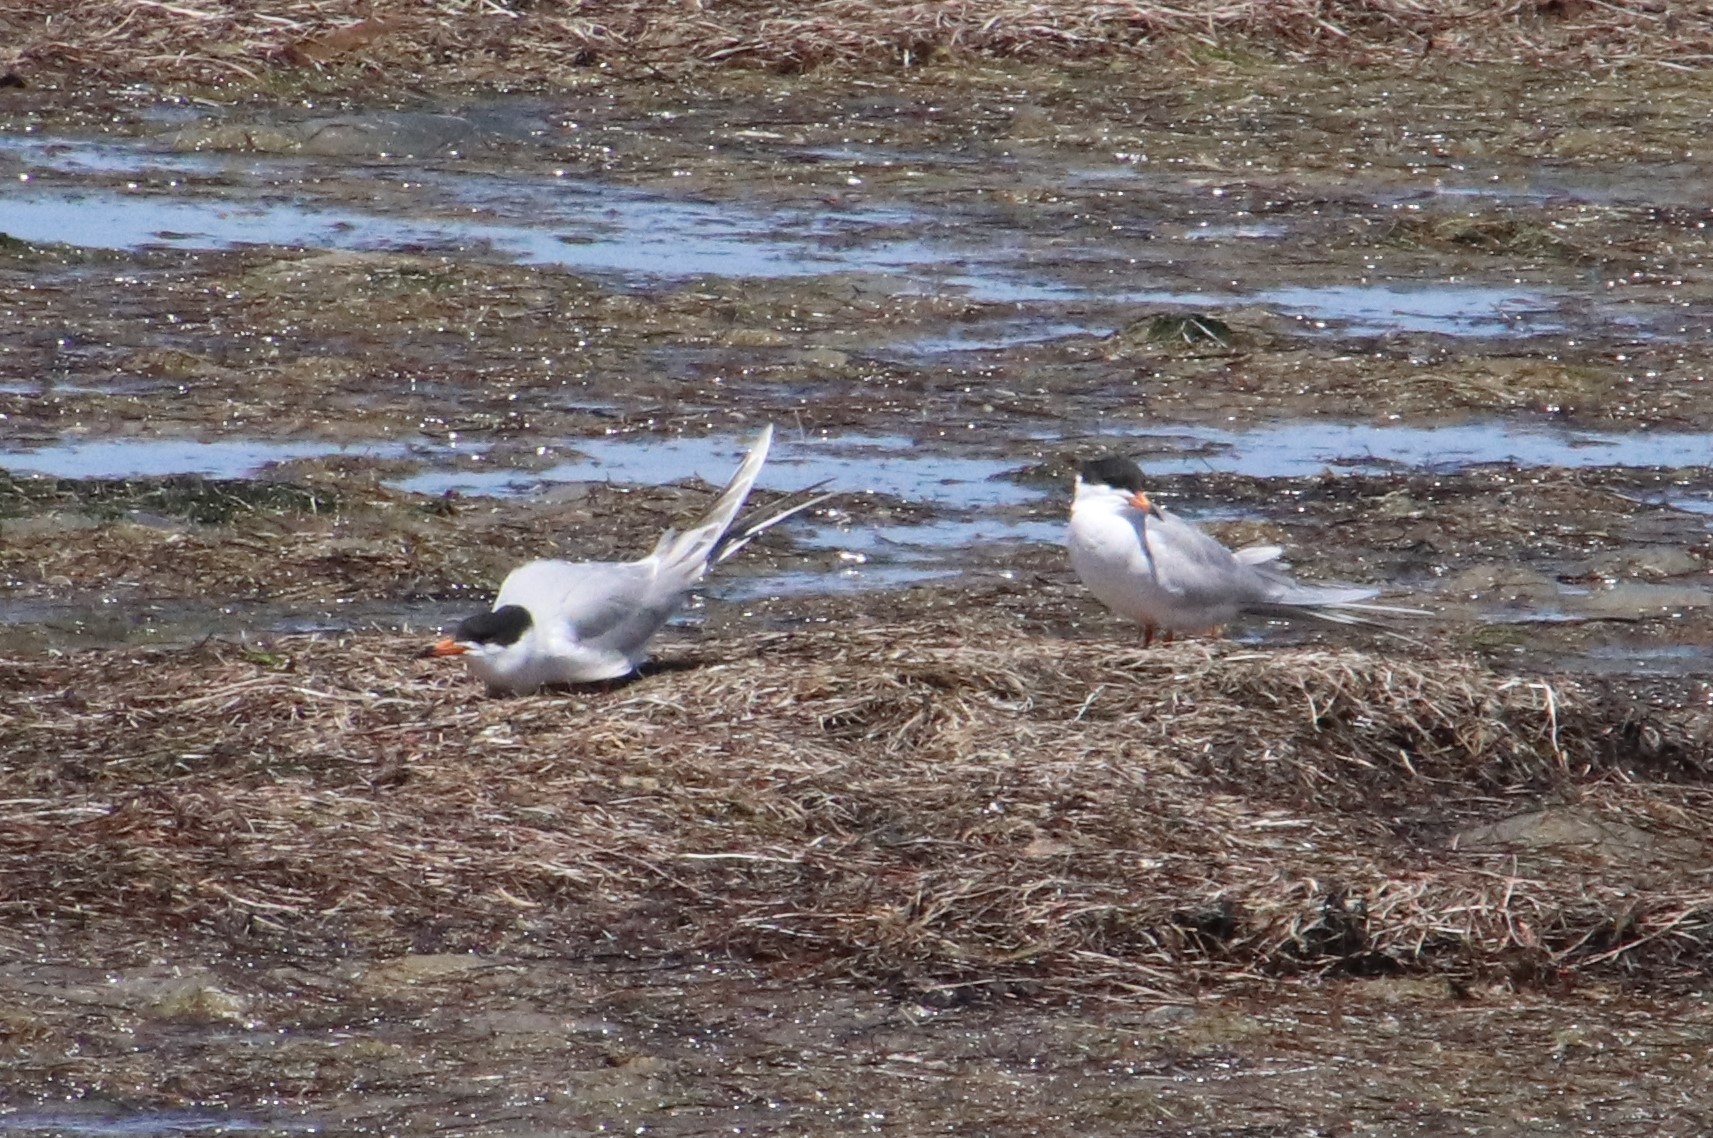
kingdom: Animalia
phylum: Chordata
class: Aves
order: Charadriiformes
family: Laridae
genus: Sterna
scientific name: Sterna forsteri
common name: Forster's tern
